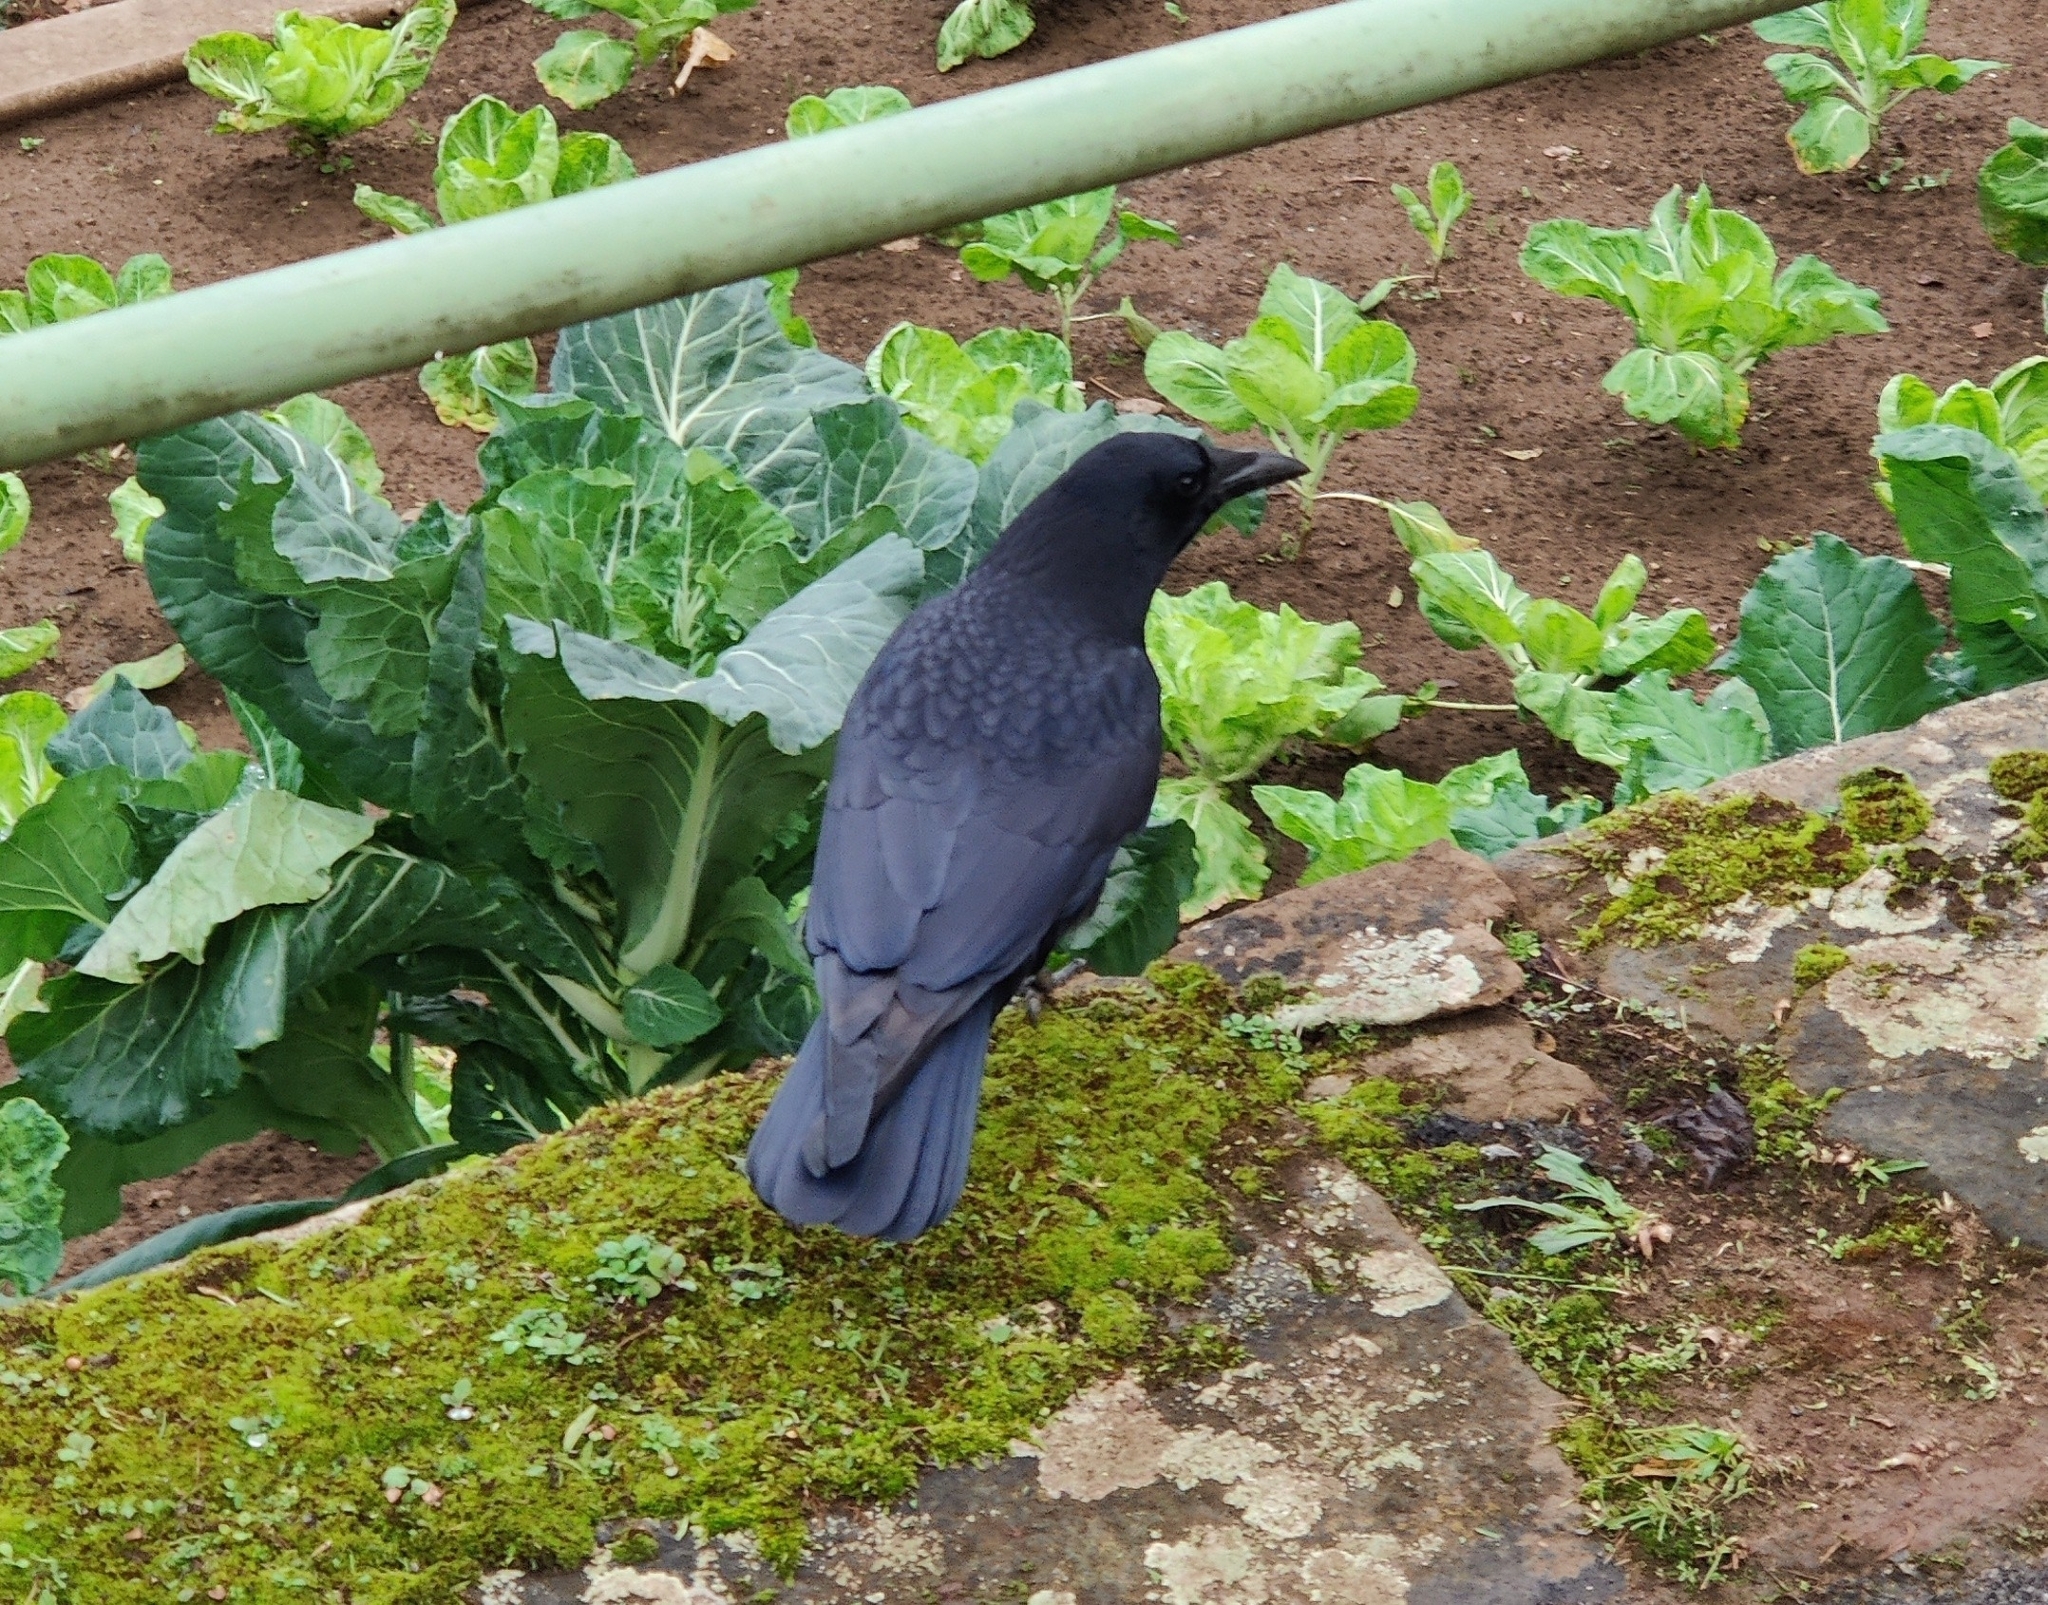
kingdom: Animalia
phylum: Chordata
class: Aves
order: Passeriformes
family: Corvidae
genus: Corvus
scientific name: Corvus corone
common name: Carrion crow
